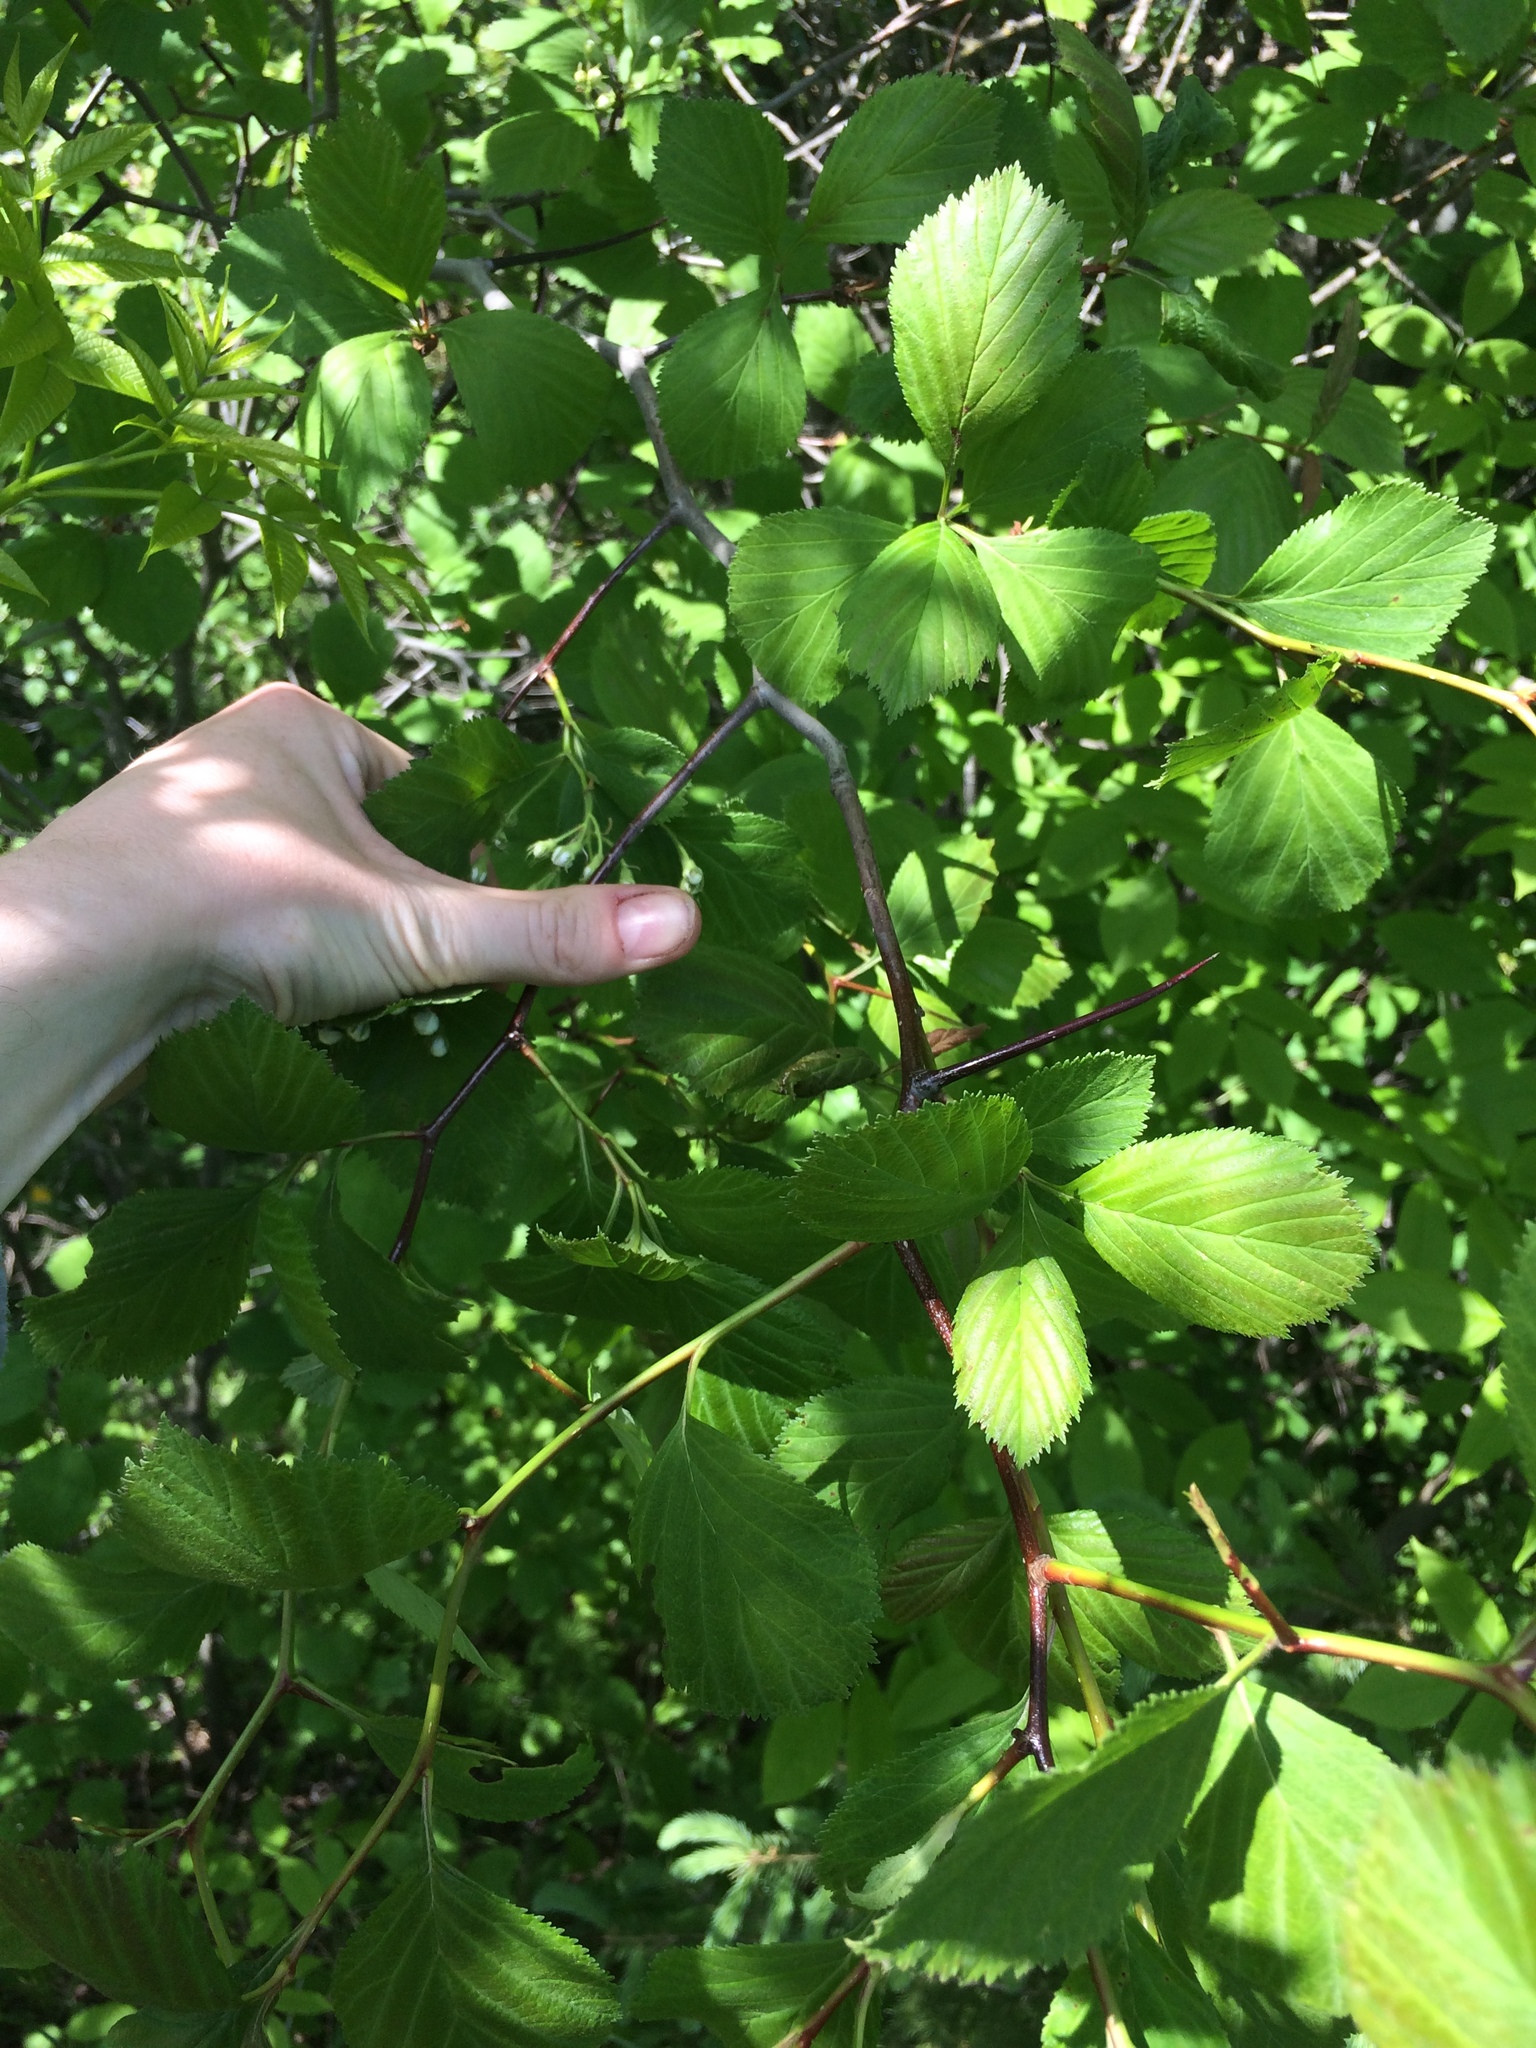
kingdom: Plantae
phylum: Tracheophyta
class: Magnoliopsida
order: Rosales
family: Rosaceae
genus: Crataegus
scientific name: Crataegus macracantha
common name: Large-thorn hawthorn
